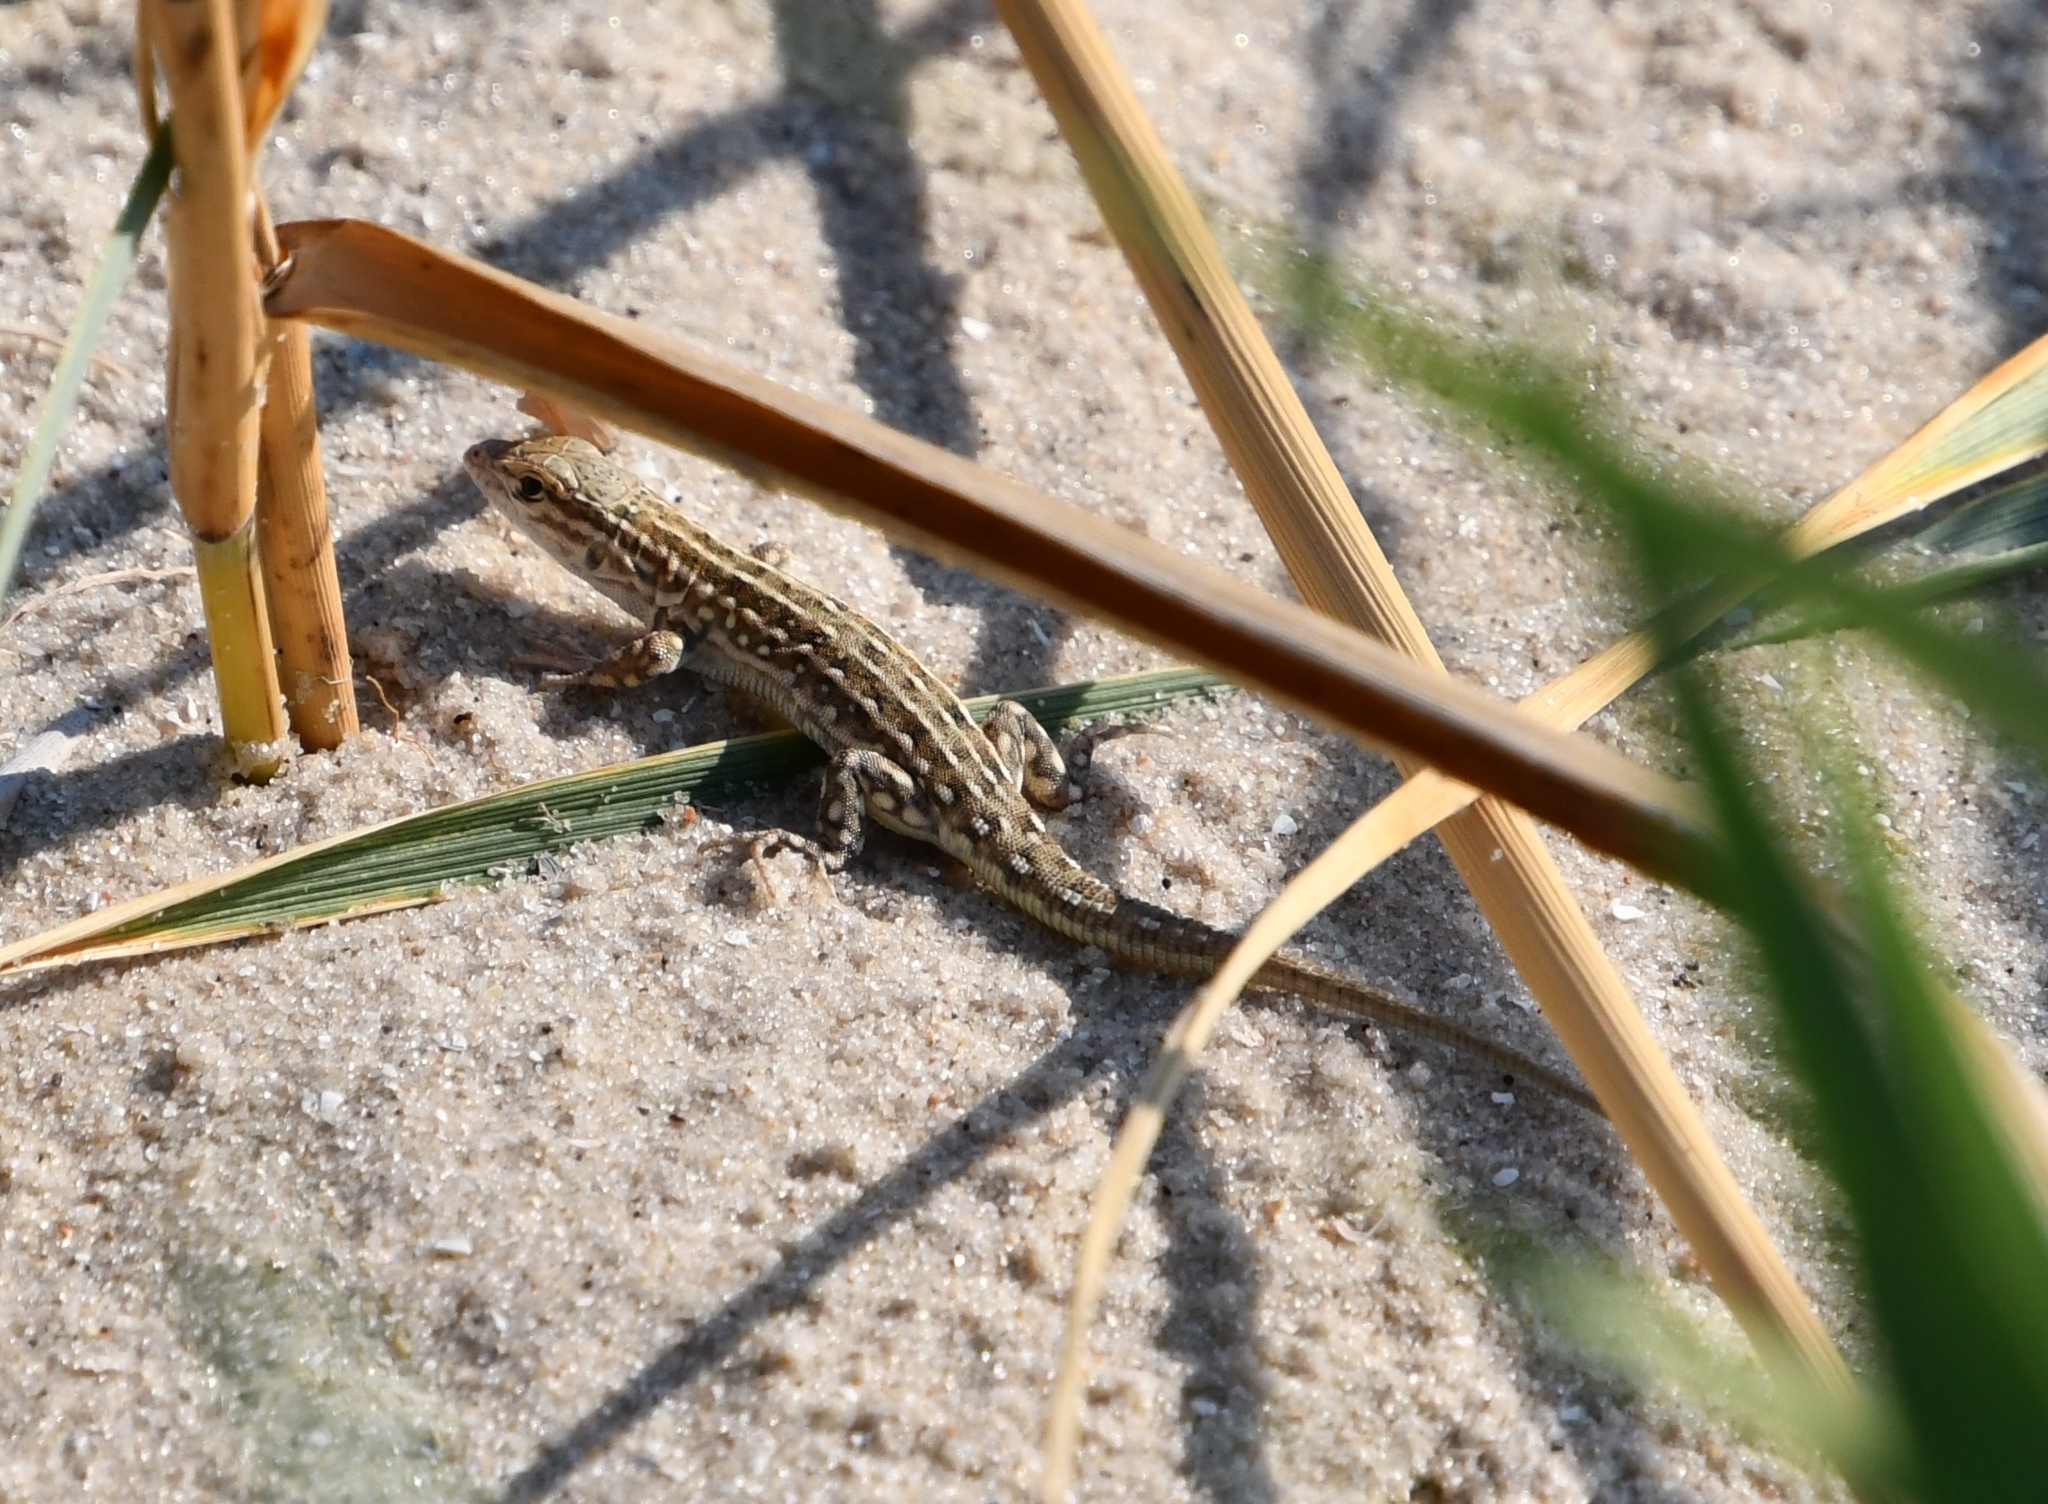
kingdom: Animalia
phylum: Chordata
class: Squamata
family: Lacertidae
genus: Eremias
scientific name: Eremias arguta
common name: Racerunner
